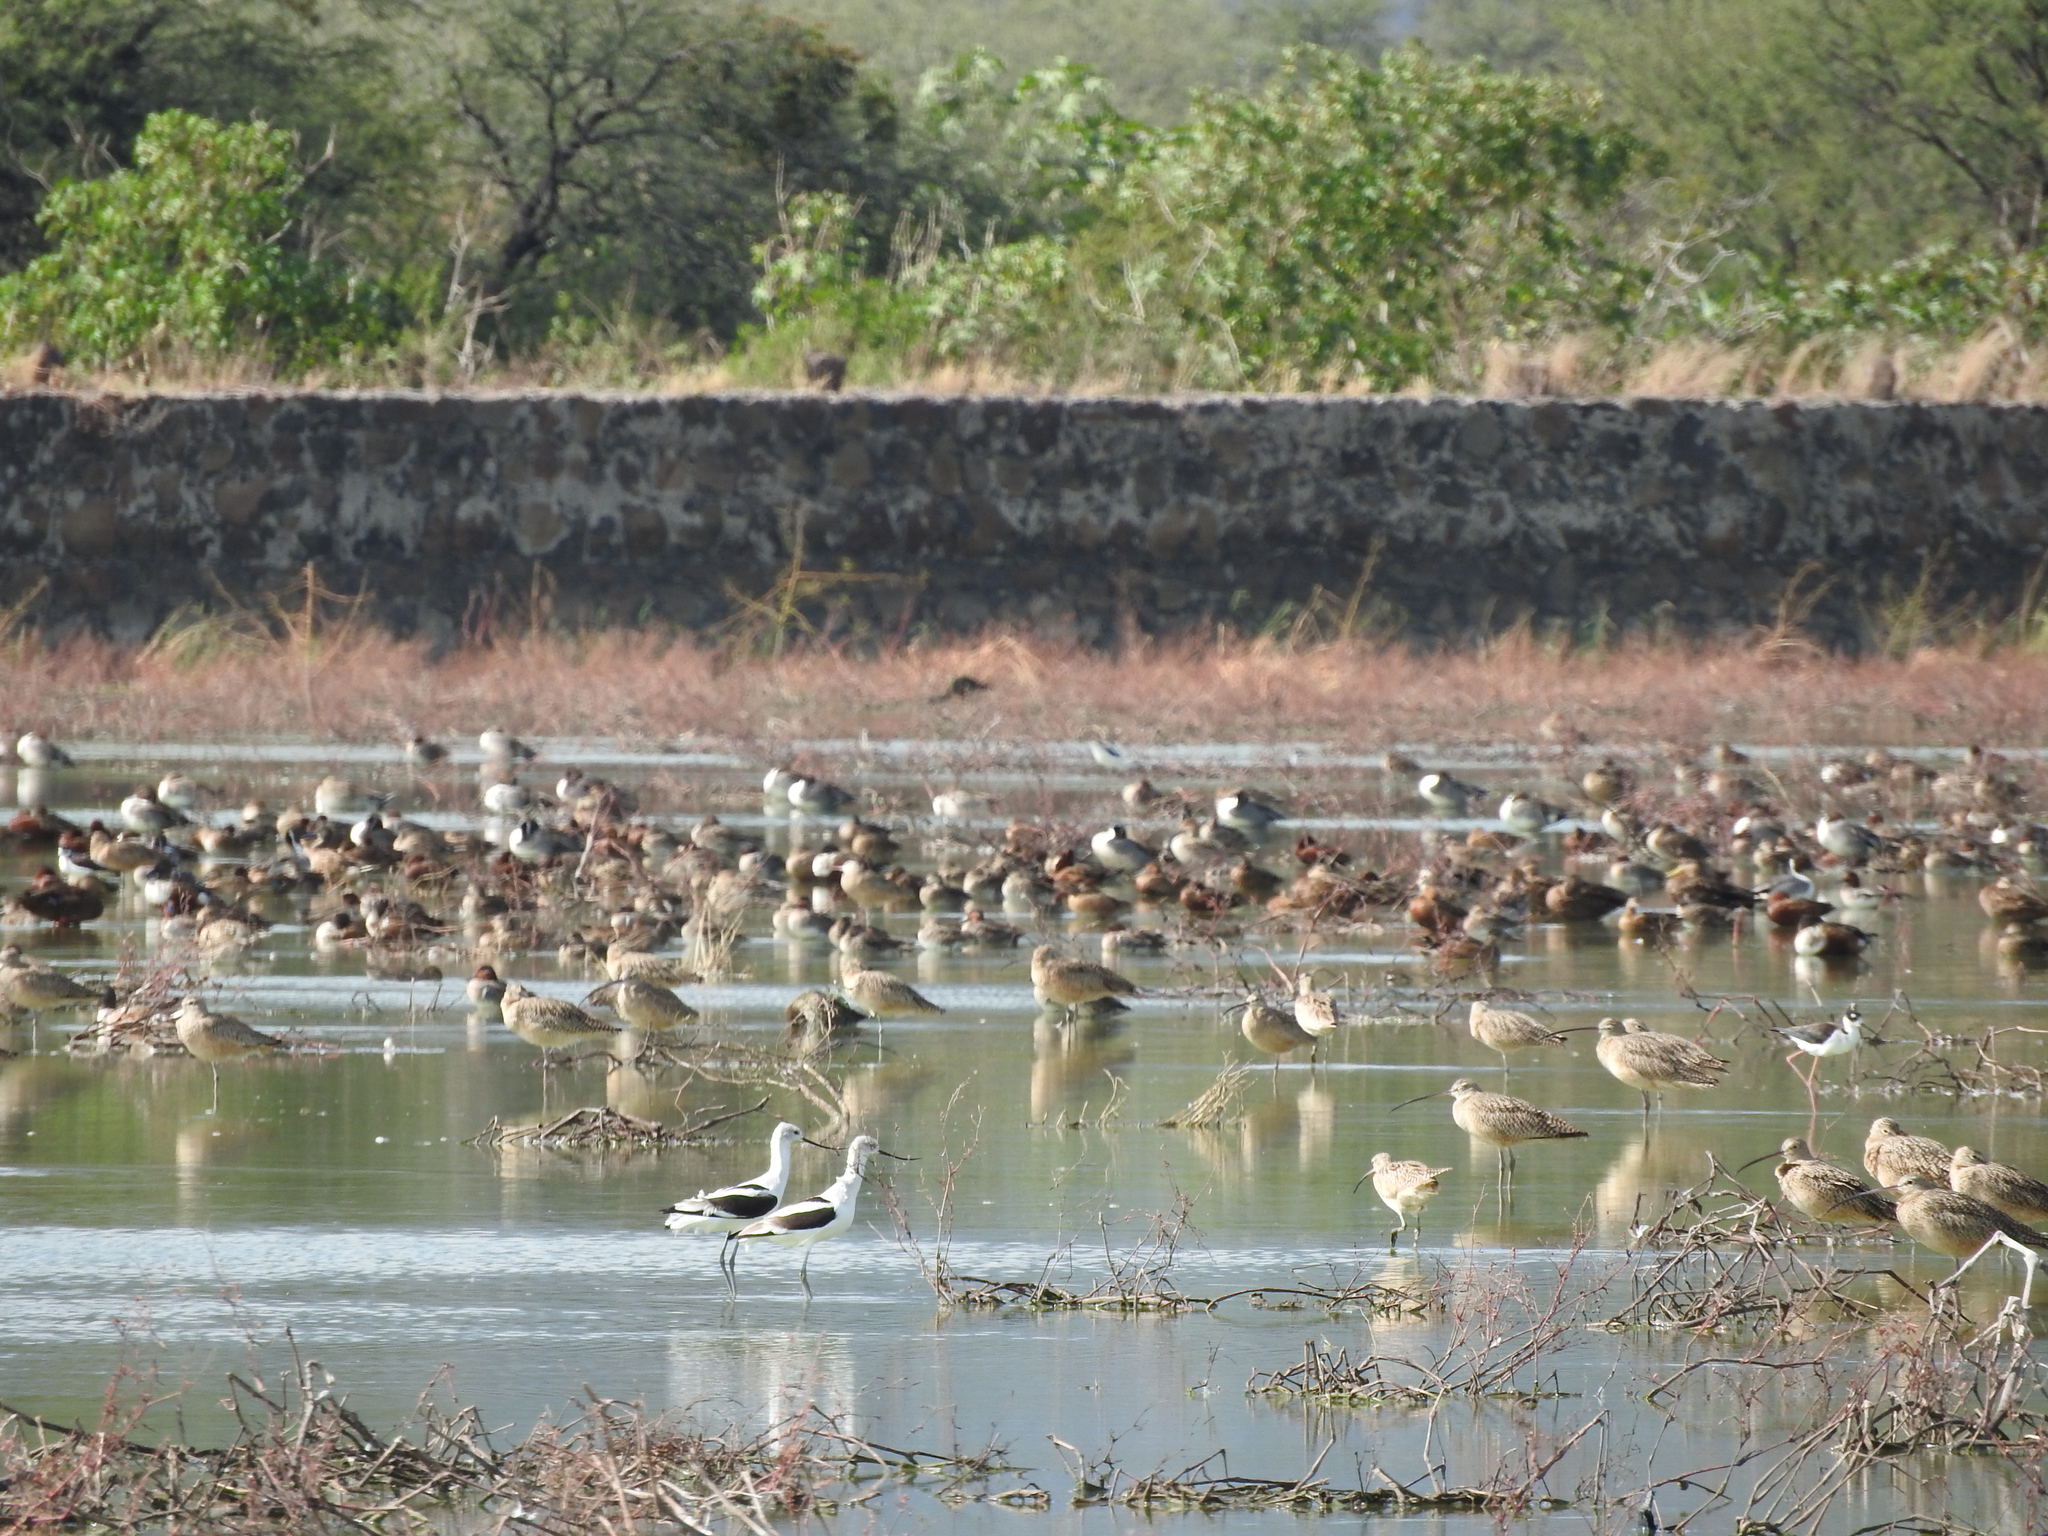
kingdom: Animalia
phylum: Chordata
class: Aves
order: Charadriiformes
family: Recurvirostridae
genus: Recurvirostra
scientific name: Recurvirostra americana
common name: American avocet
